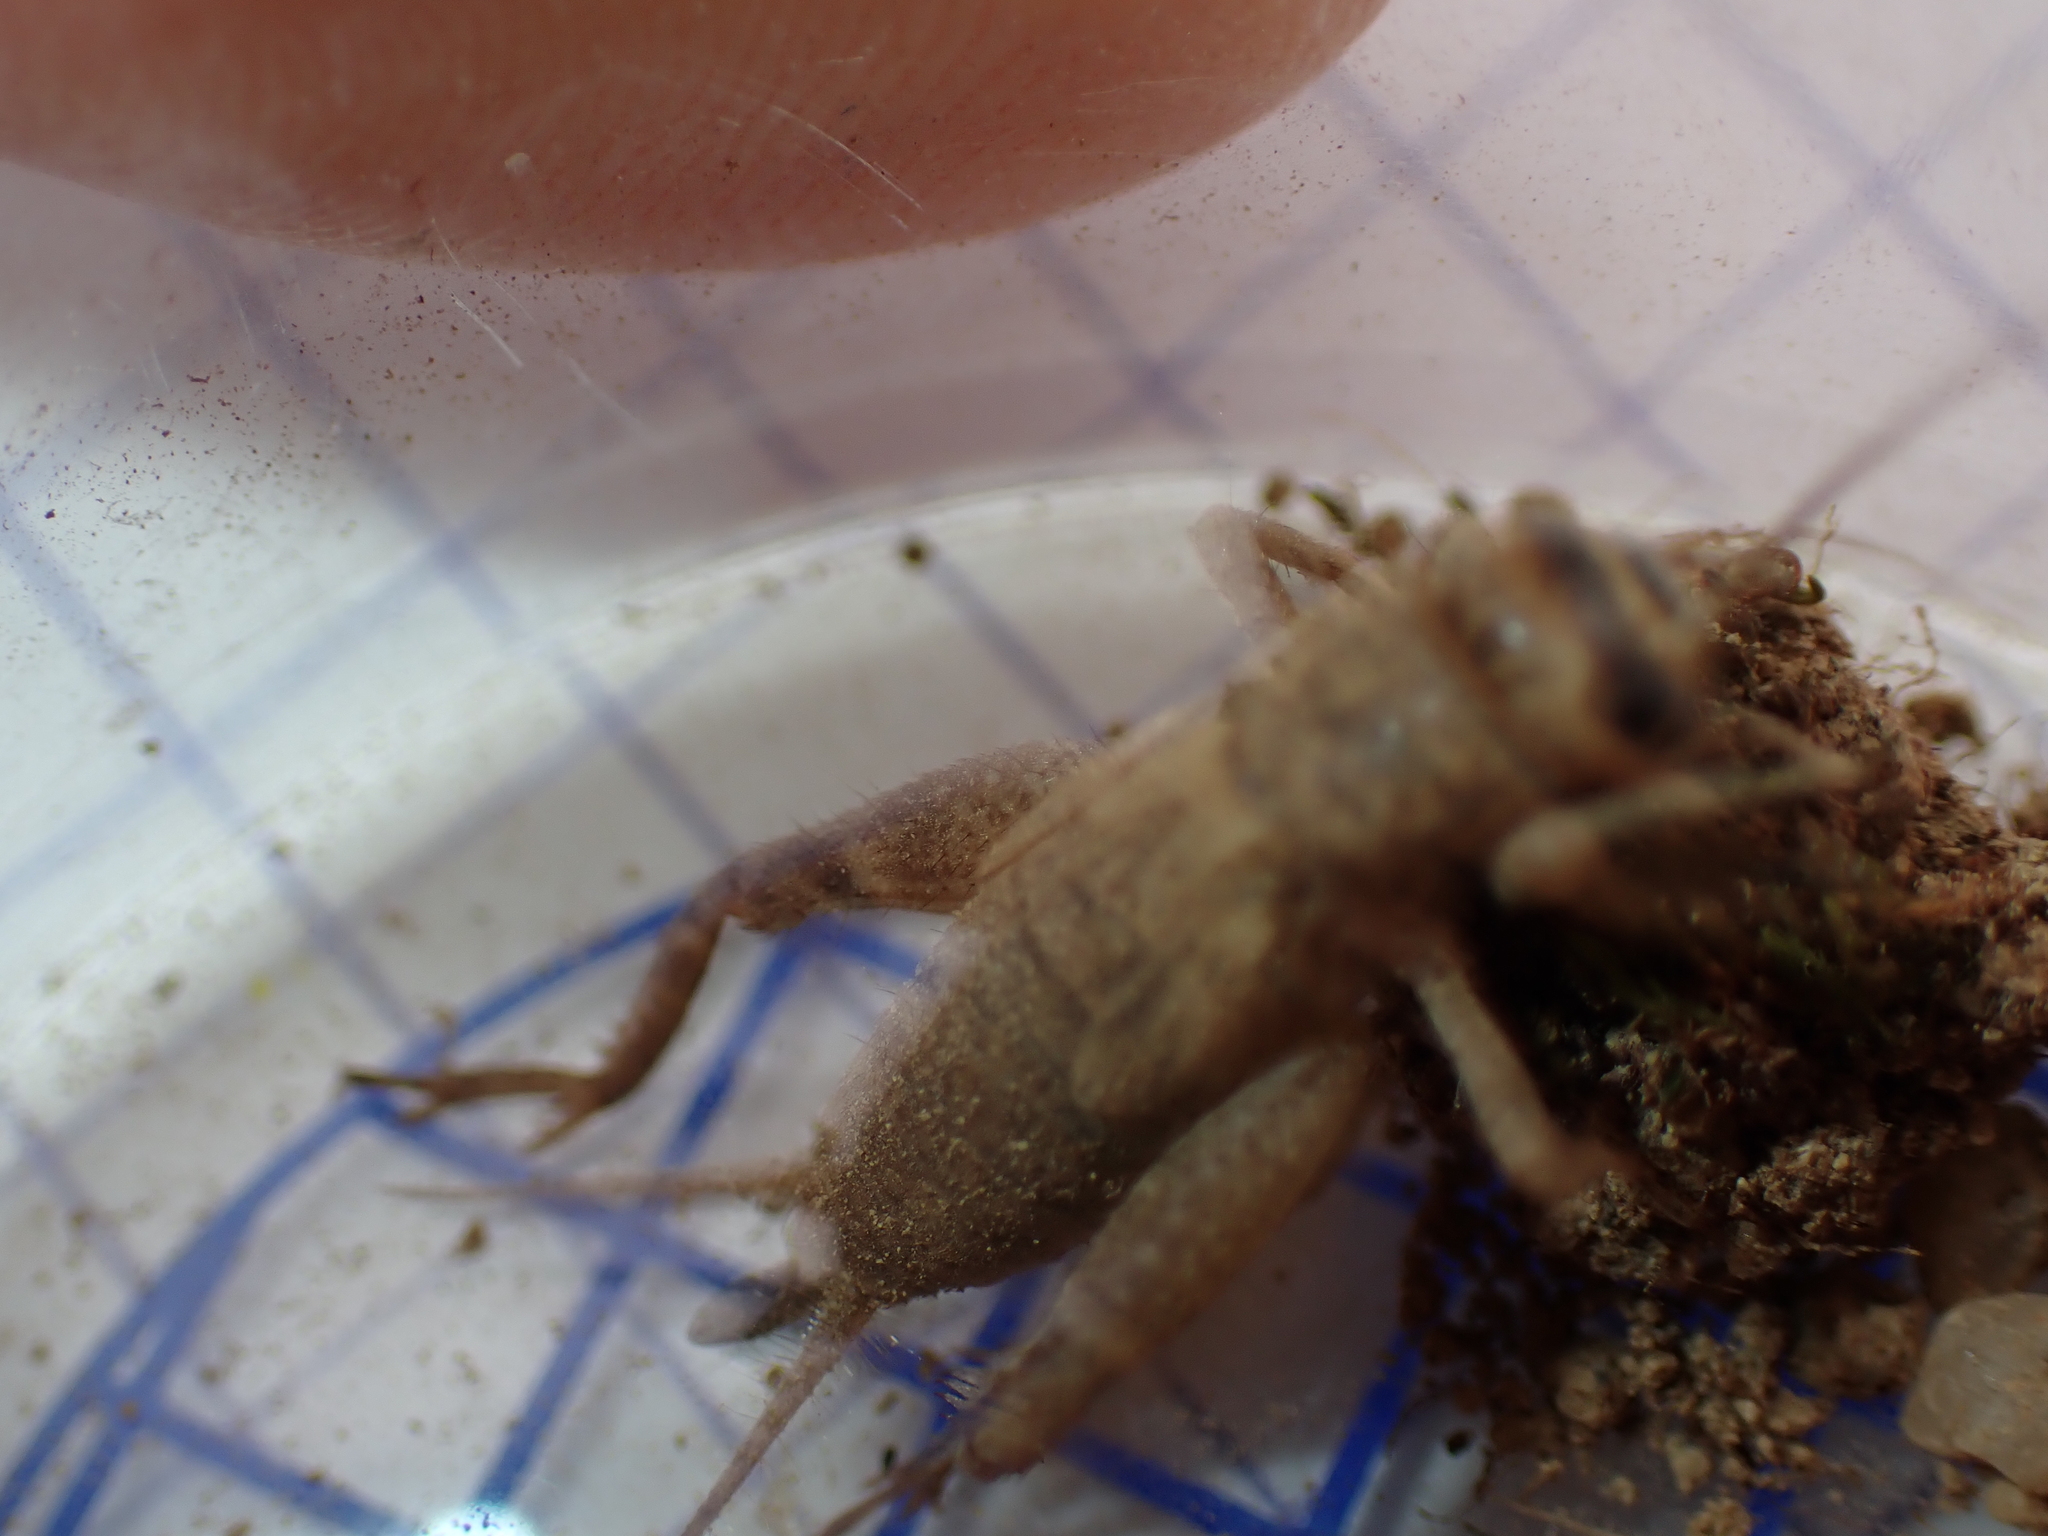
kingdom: Animalia
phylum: Arthropoda
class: Insecta
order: Orthoptera
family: Gryllidae
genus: Eumodicogryllus
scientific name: Eumodicogryllus bordigalensis
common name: Bordeaux cricket
